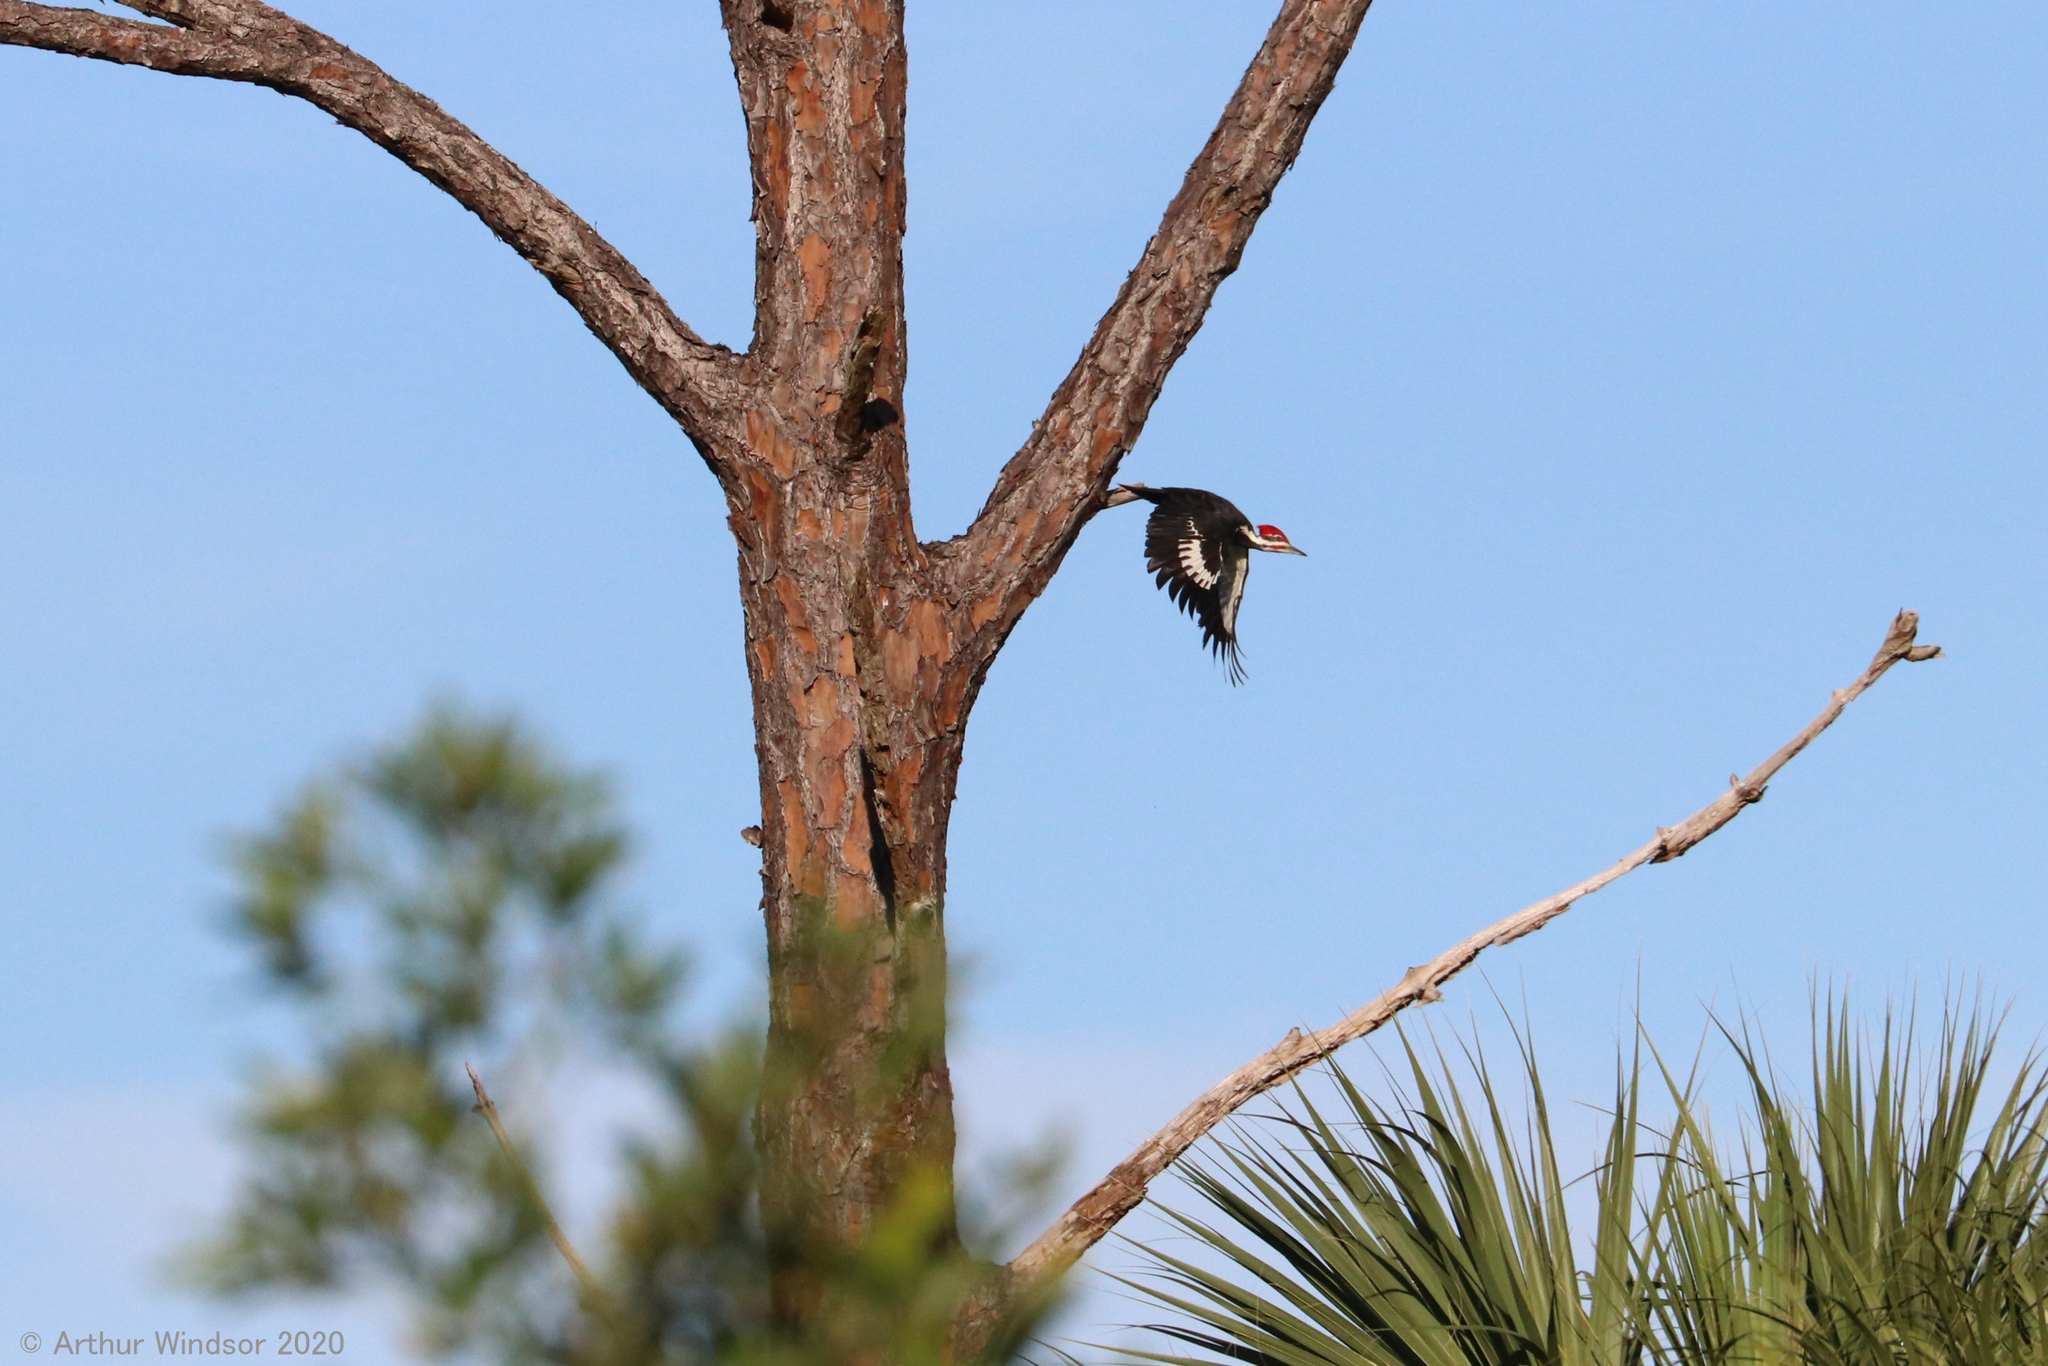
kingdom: Animalia
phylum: Chordata
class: Aves
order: Piciformes
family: Picidae
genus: Dryocopus
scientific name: Dryocopus pileatus
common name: Pileated woodpecker
